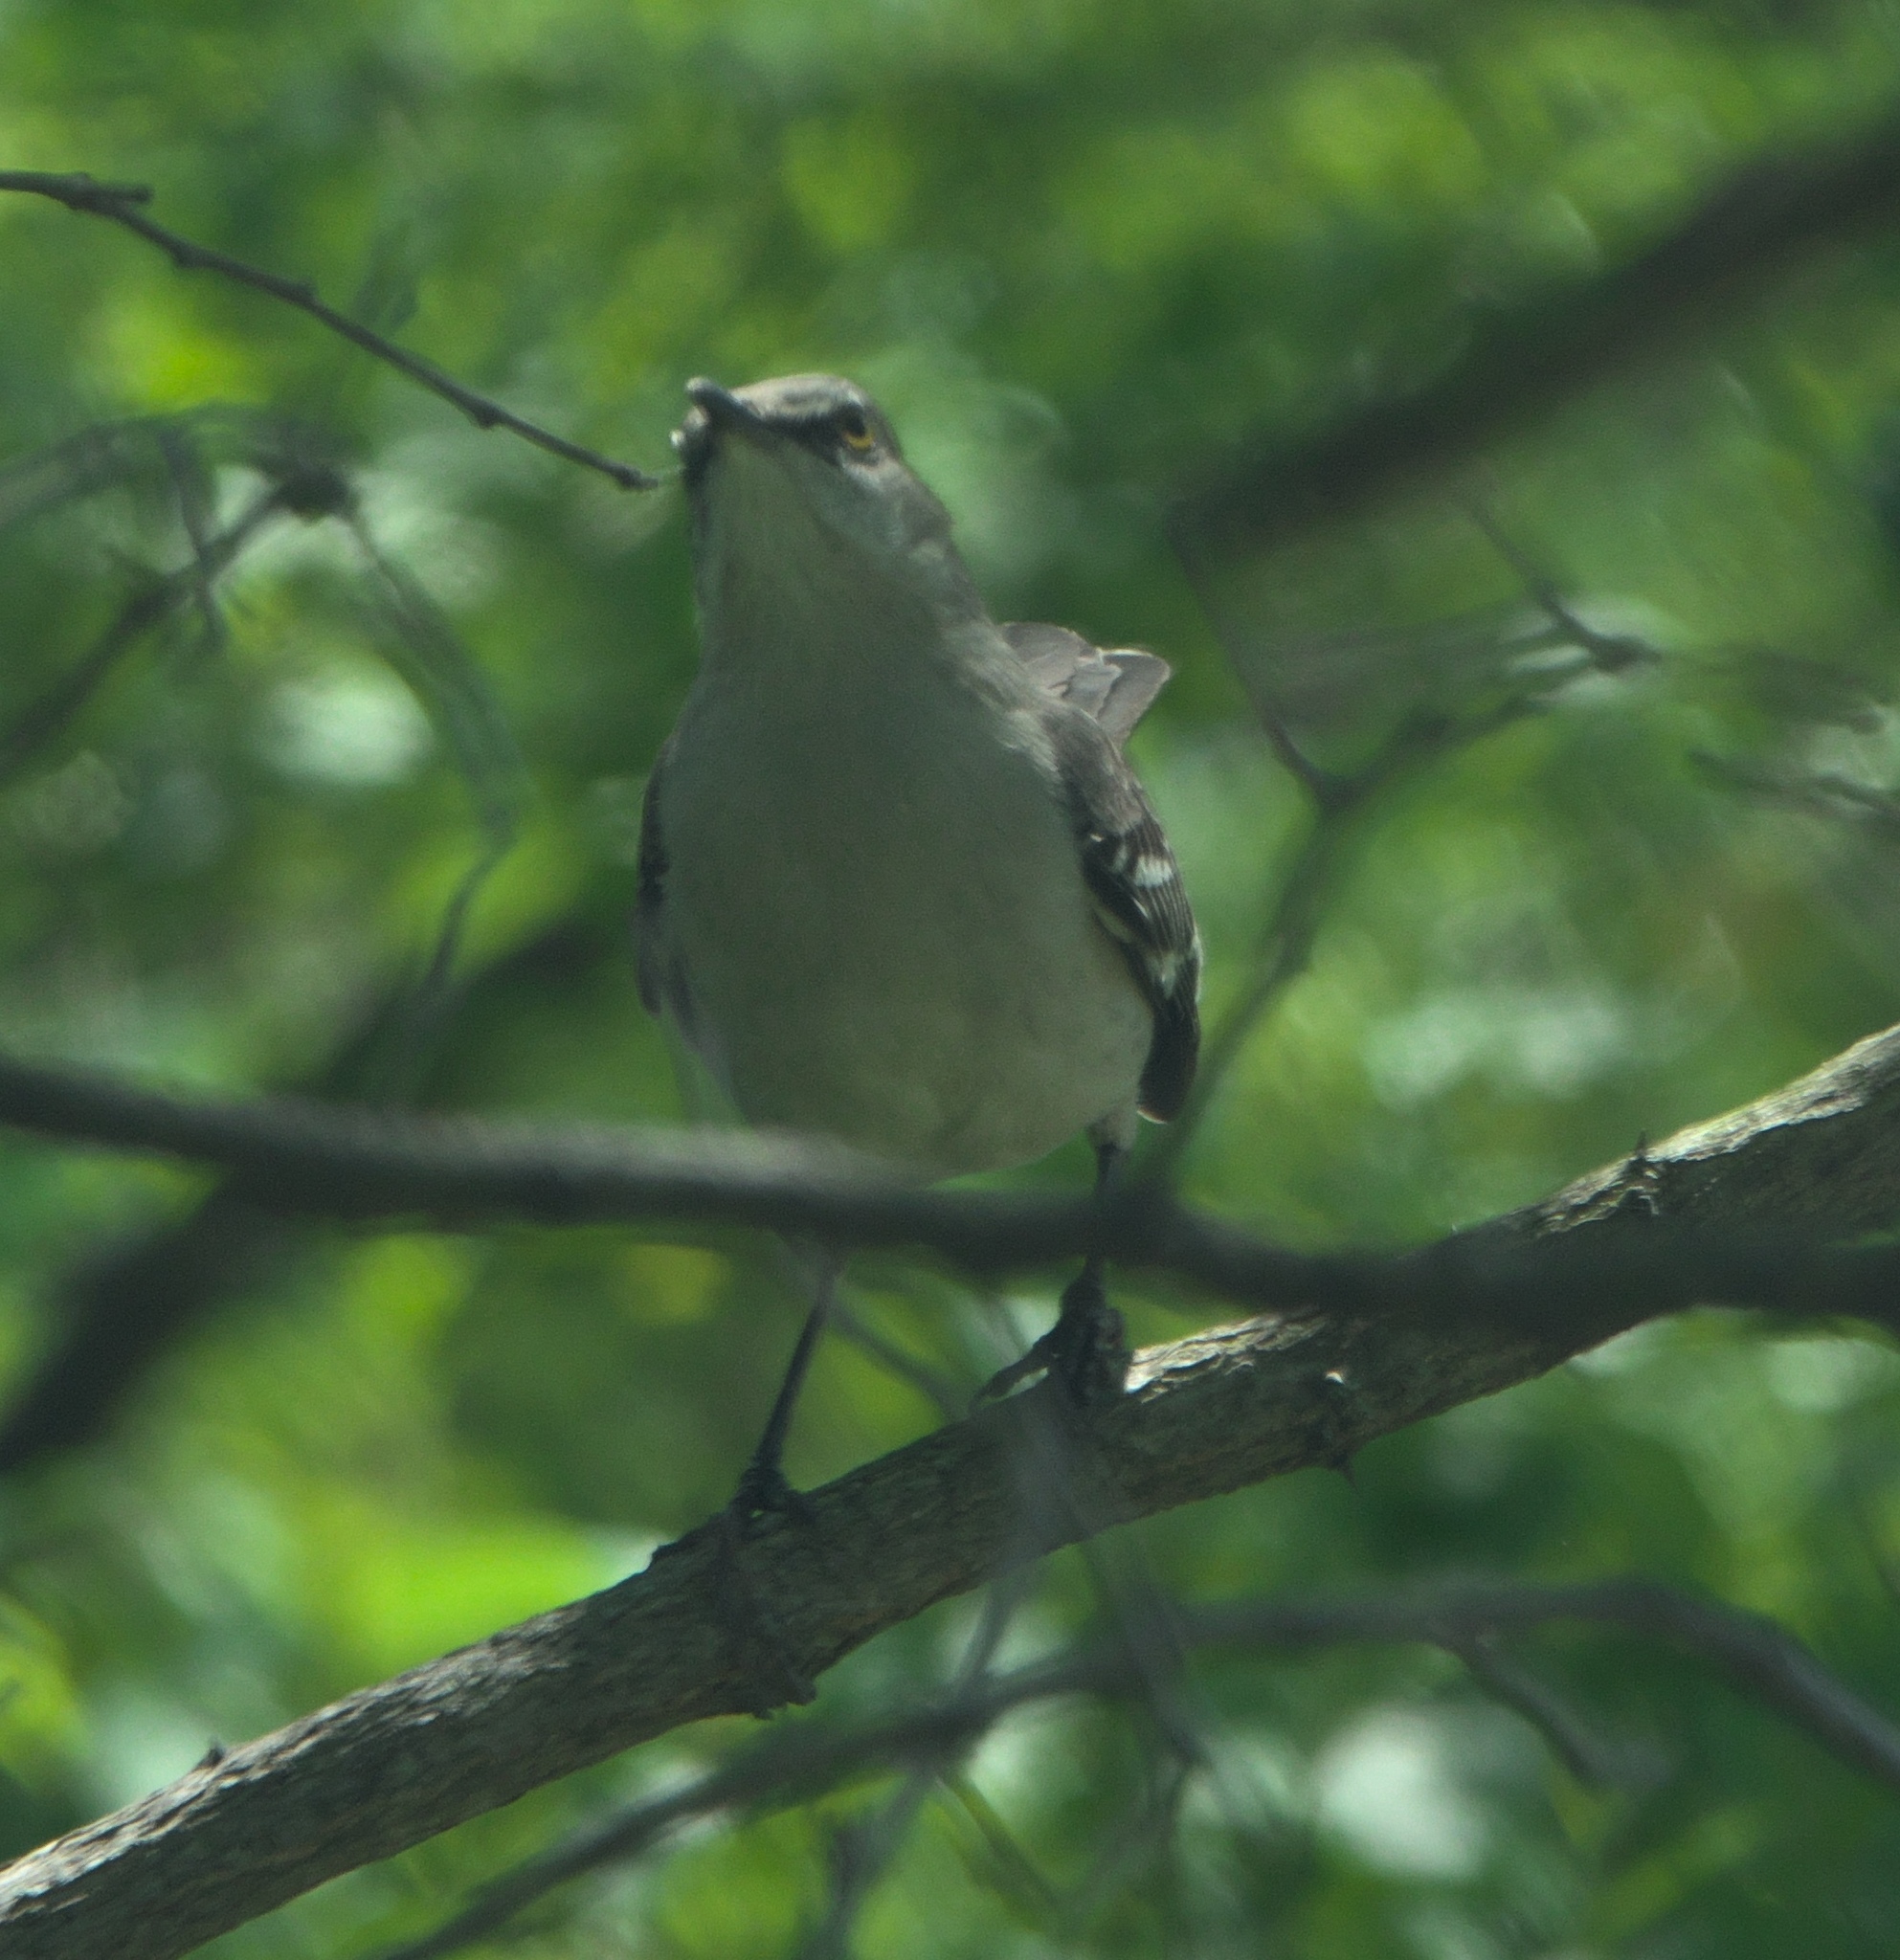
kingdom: Animalia
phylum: Chordata
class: Aves
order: Passeriformes
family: Mimidae
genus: Mimus
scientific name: Mimus polyglottos
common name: Northern mockingbird
